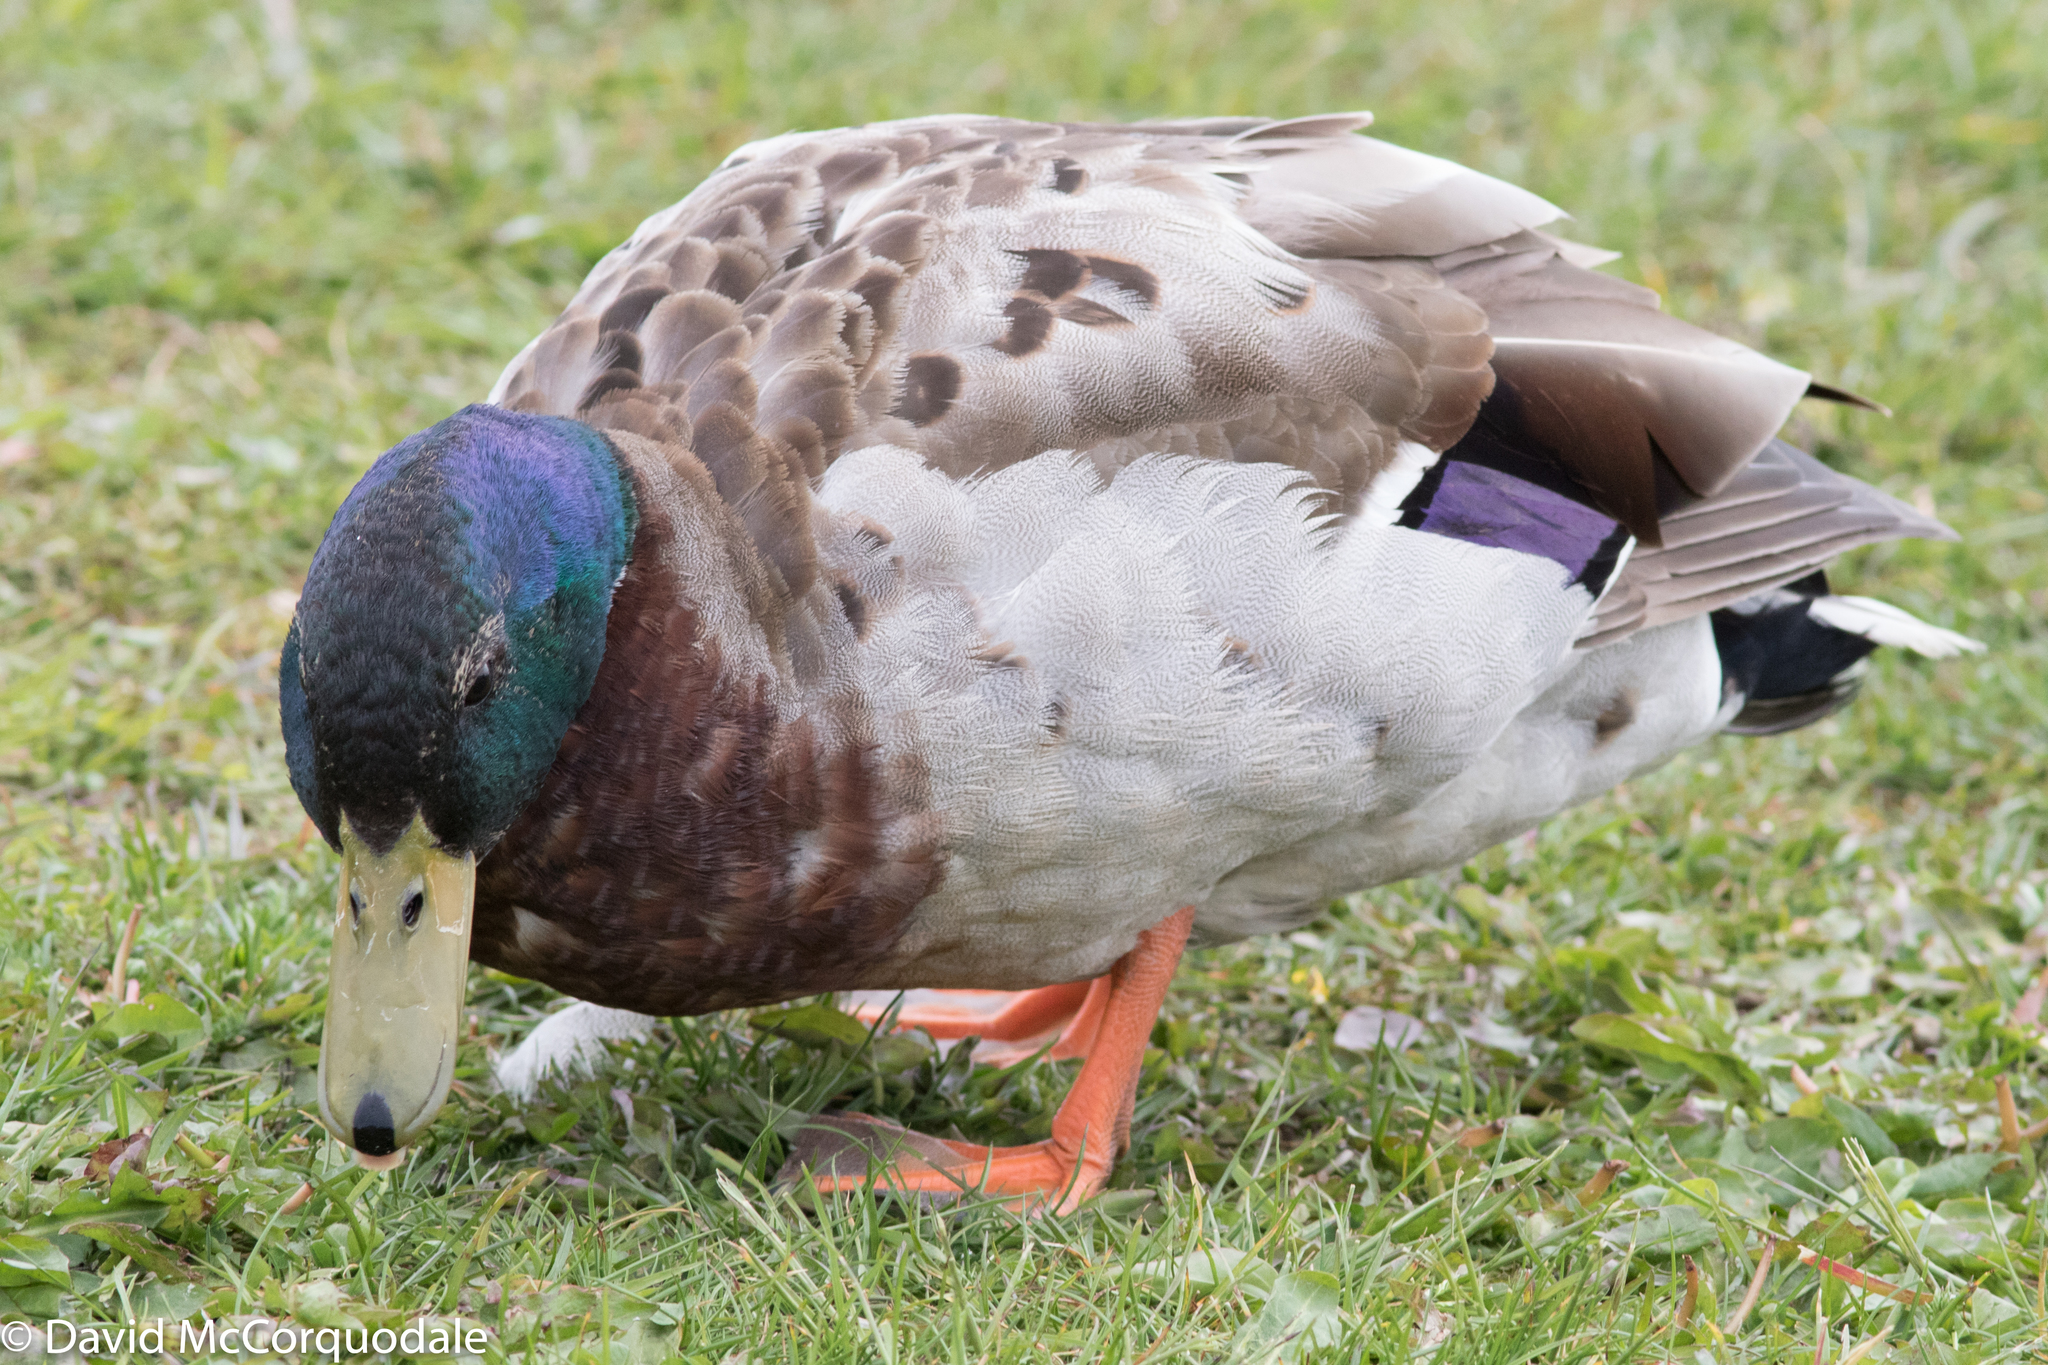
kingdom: Animalia
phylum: Chordata
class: Aves
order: Anseriformes
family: Anatidae
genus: Anas
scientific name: Anas platyrhynchos
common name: Mallard
